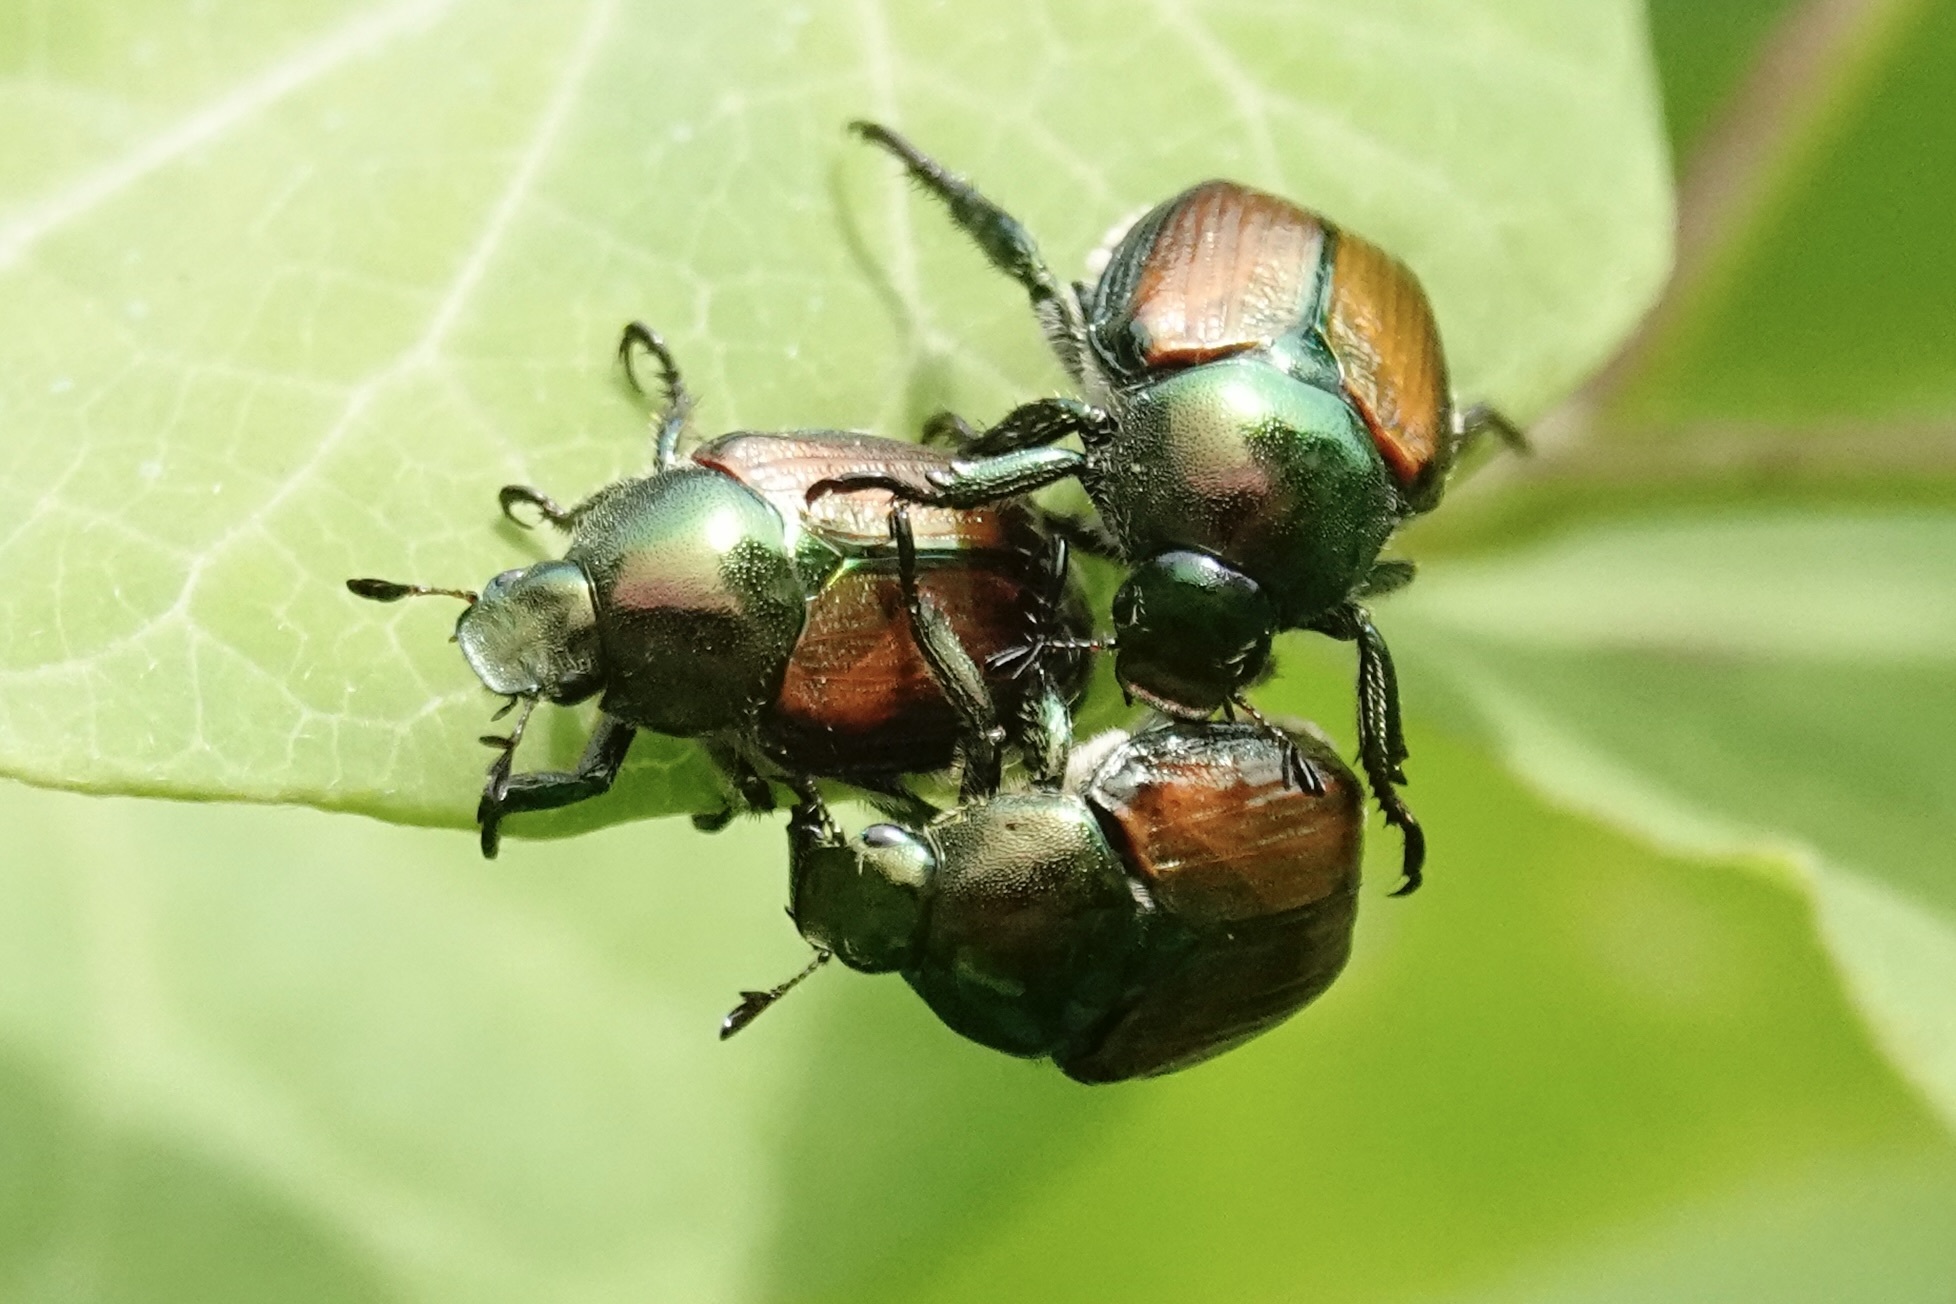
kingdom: Animalia
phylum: Arthropoda
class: Insecta
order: Coleoptera
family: Scarabaeidae
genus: Popillia
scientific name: Popillia japonica
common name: Japanese beetle
